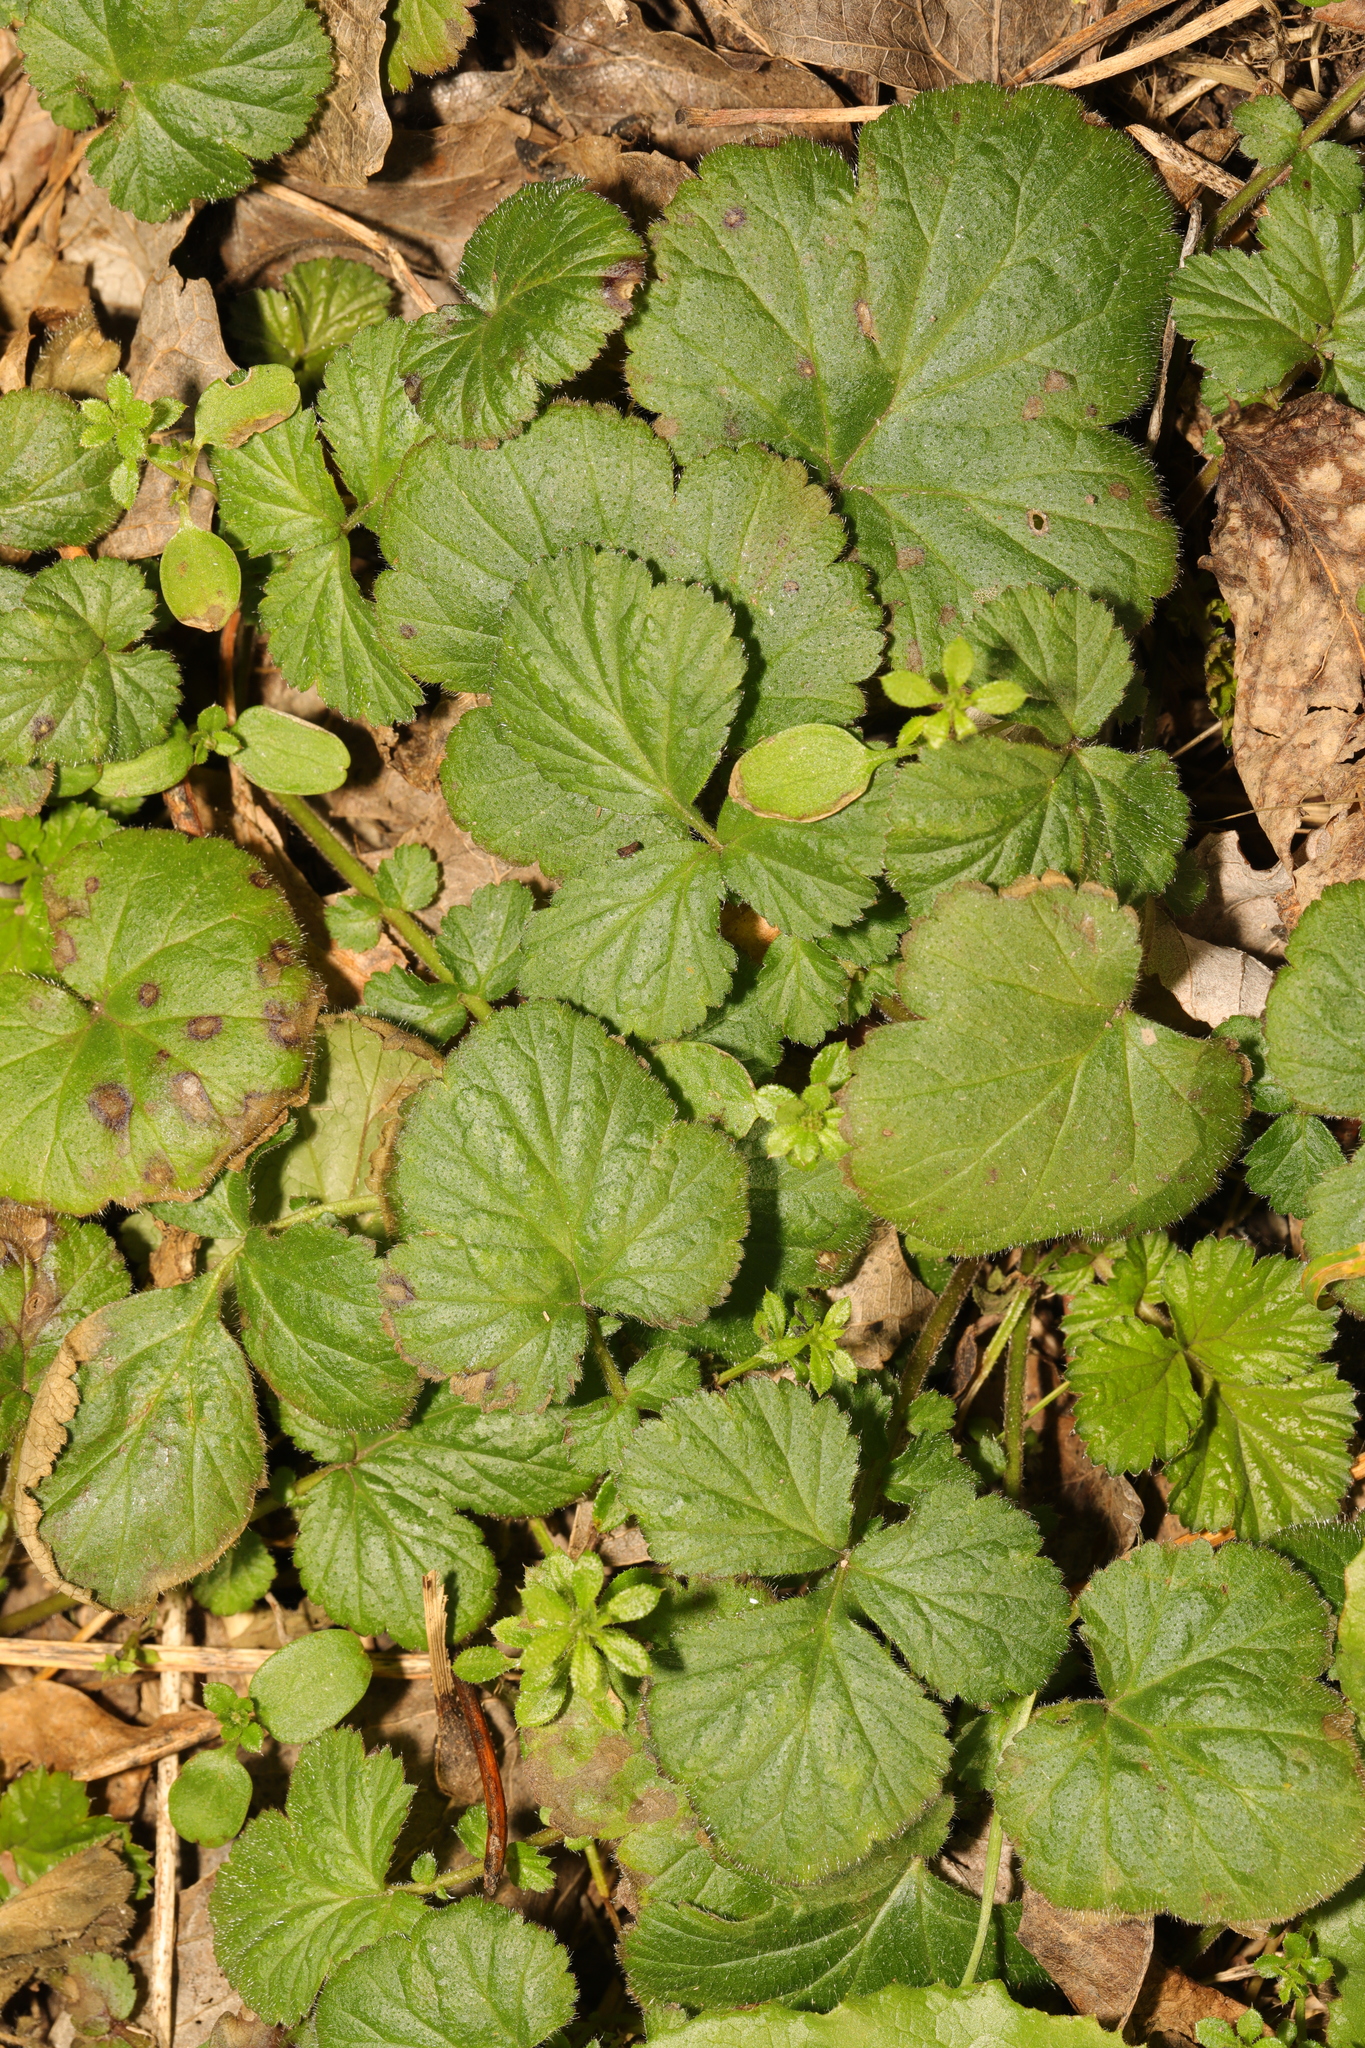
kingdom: Plantae
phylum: Tracheophyta
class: Magnoliopsida
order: Rosales
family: Rosaceae
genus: Geum
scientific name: Geum urbanum
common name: Wood avens
